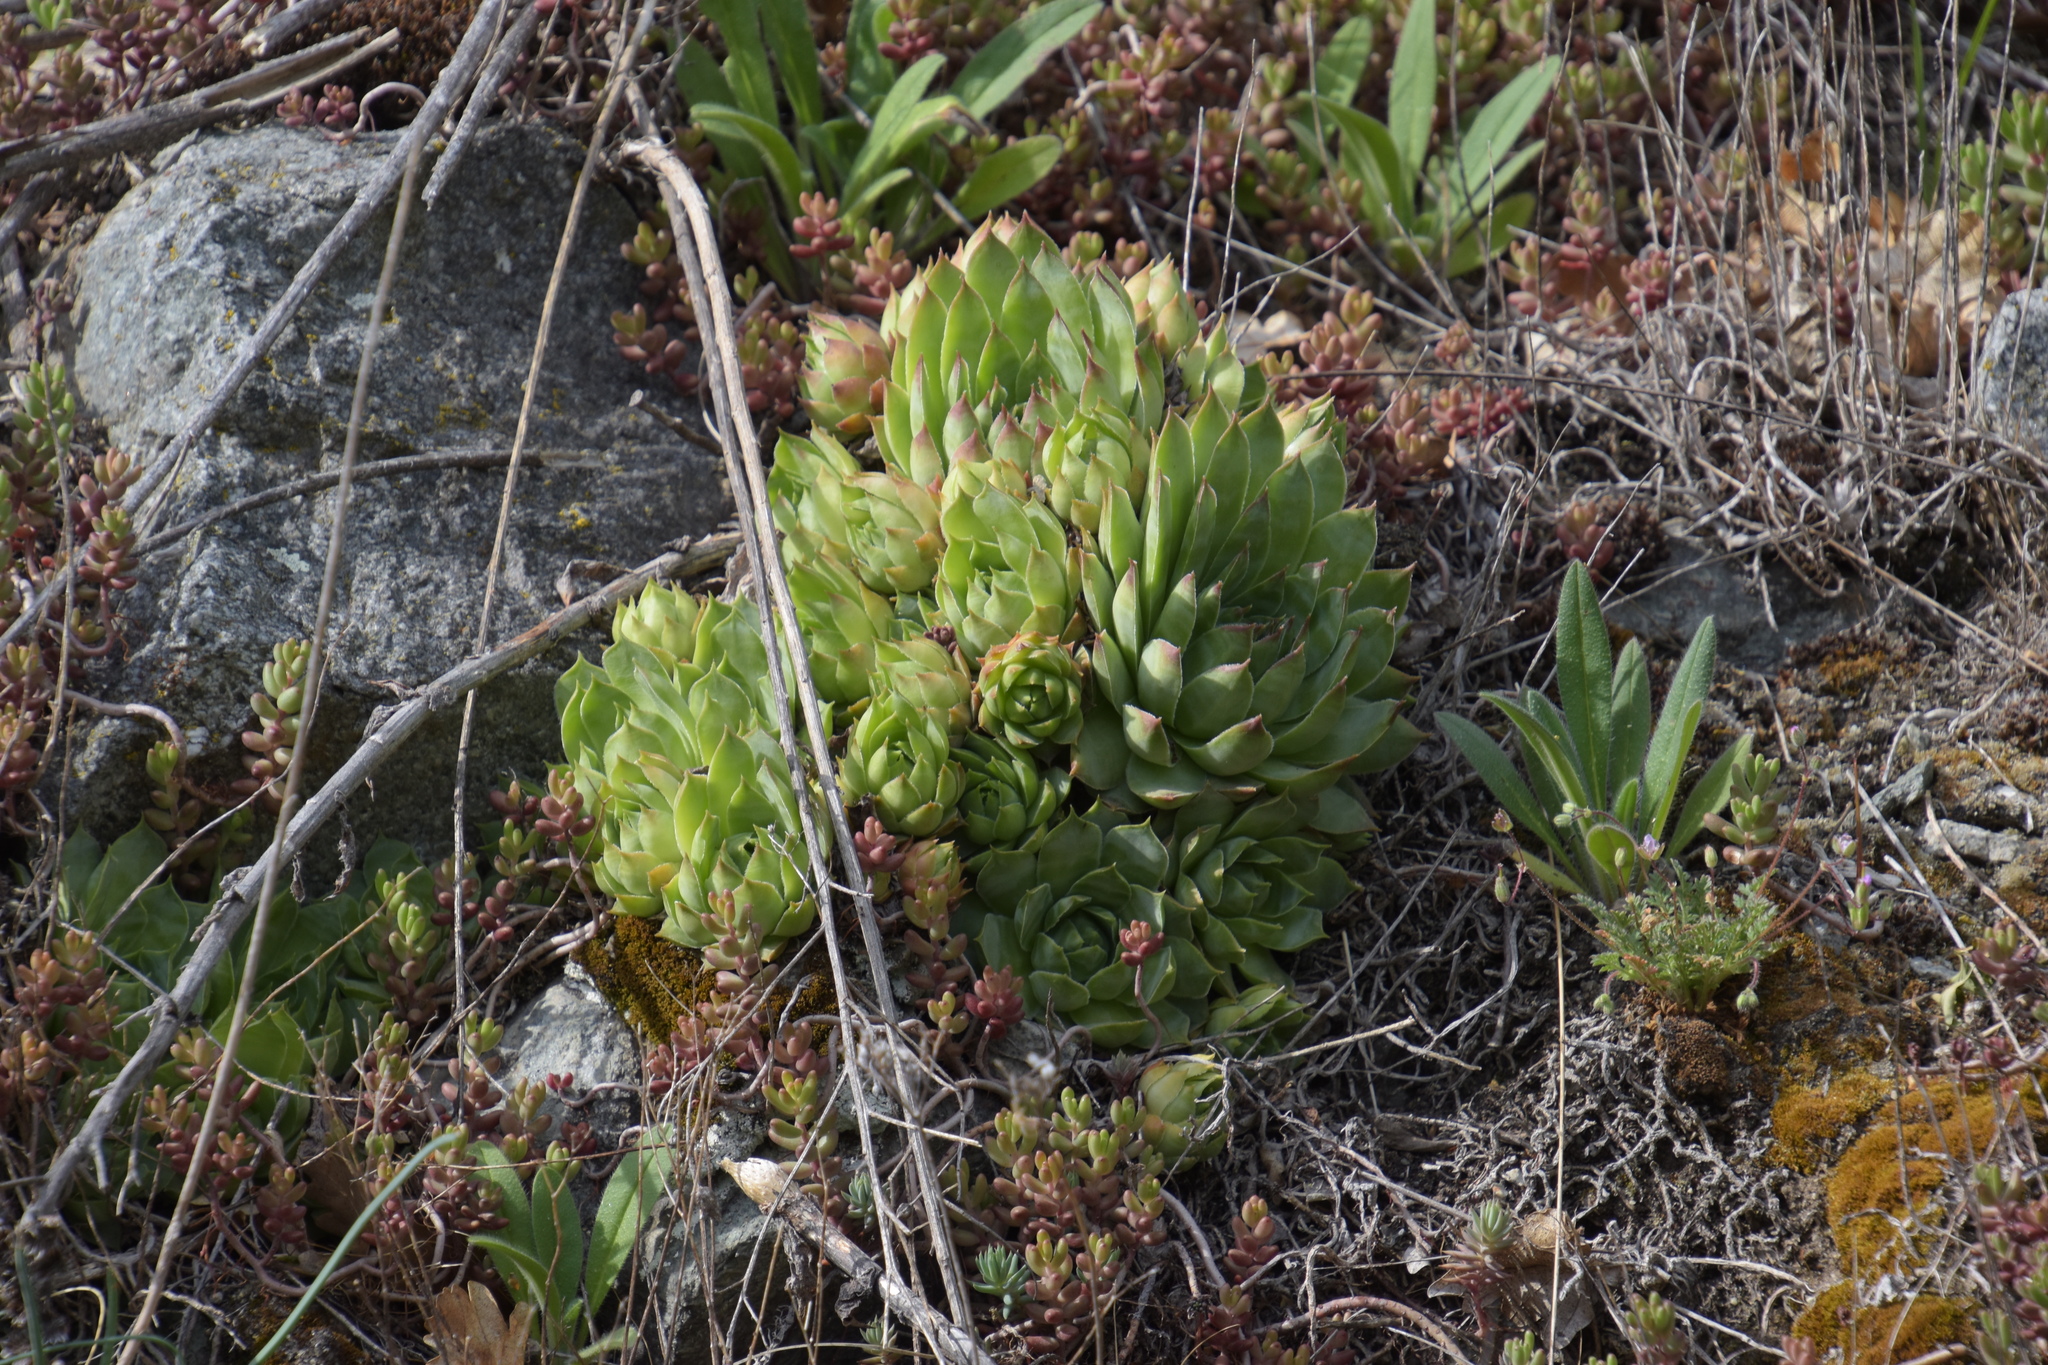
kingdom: Plantae
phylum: Tracheophyta
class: Magnoliopsida
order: Saxifragales
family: Crassulaceae
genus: Sempervivum
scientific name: Sempervivum tectorum
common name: House-leek
